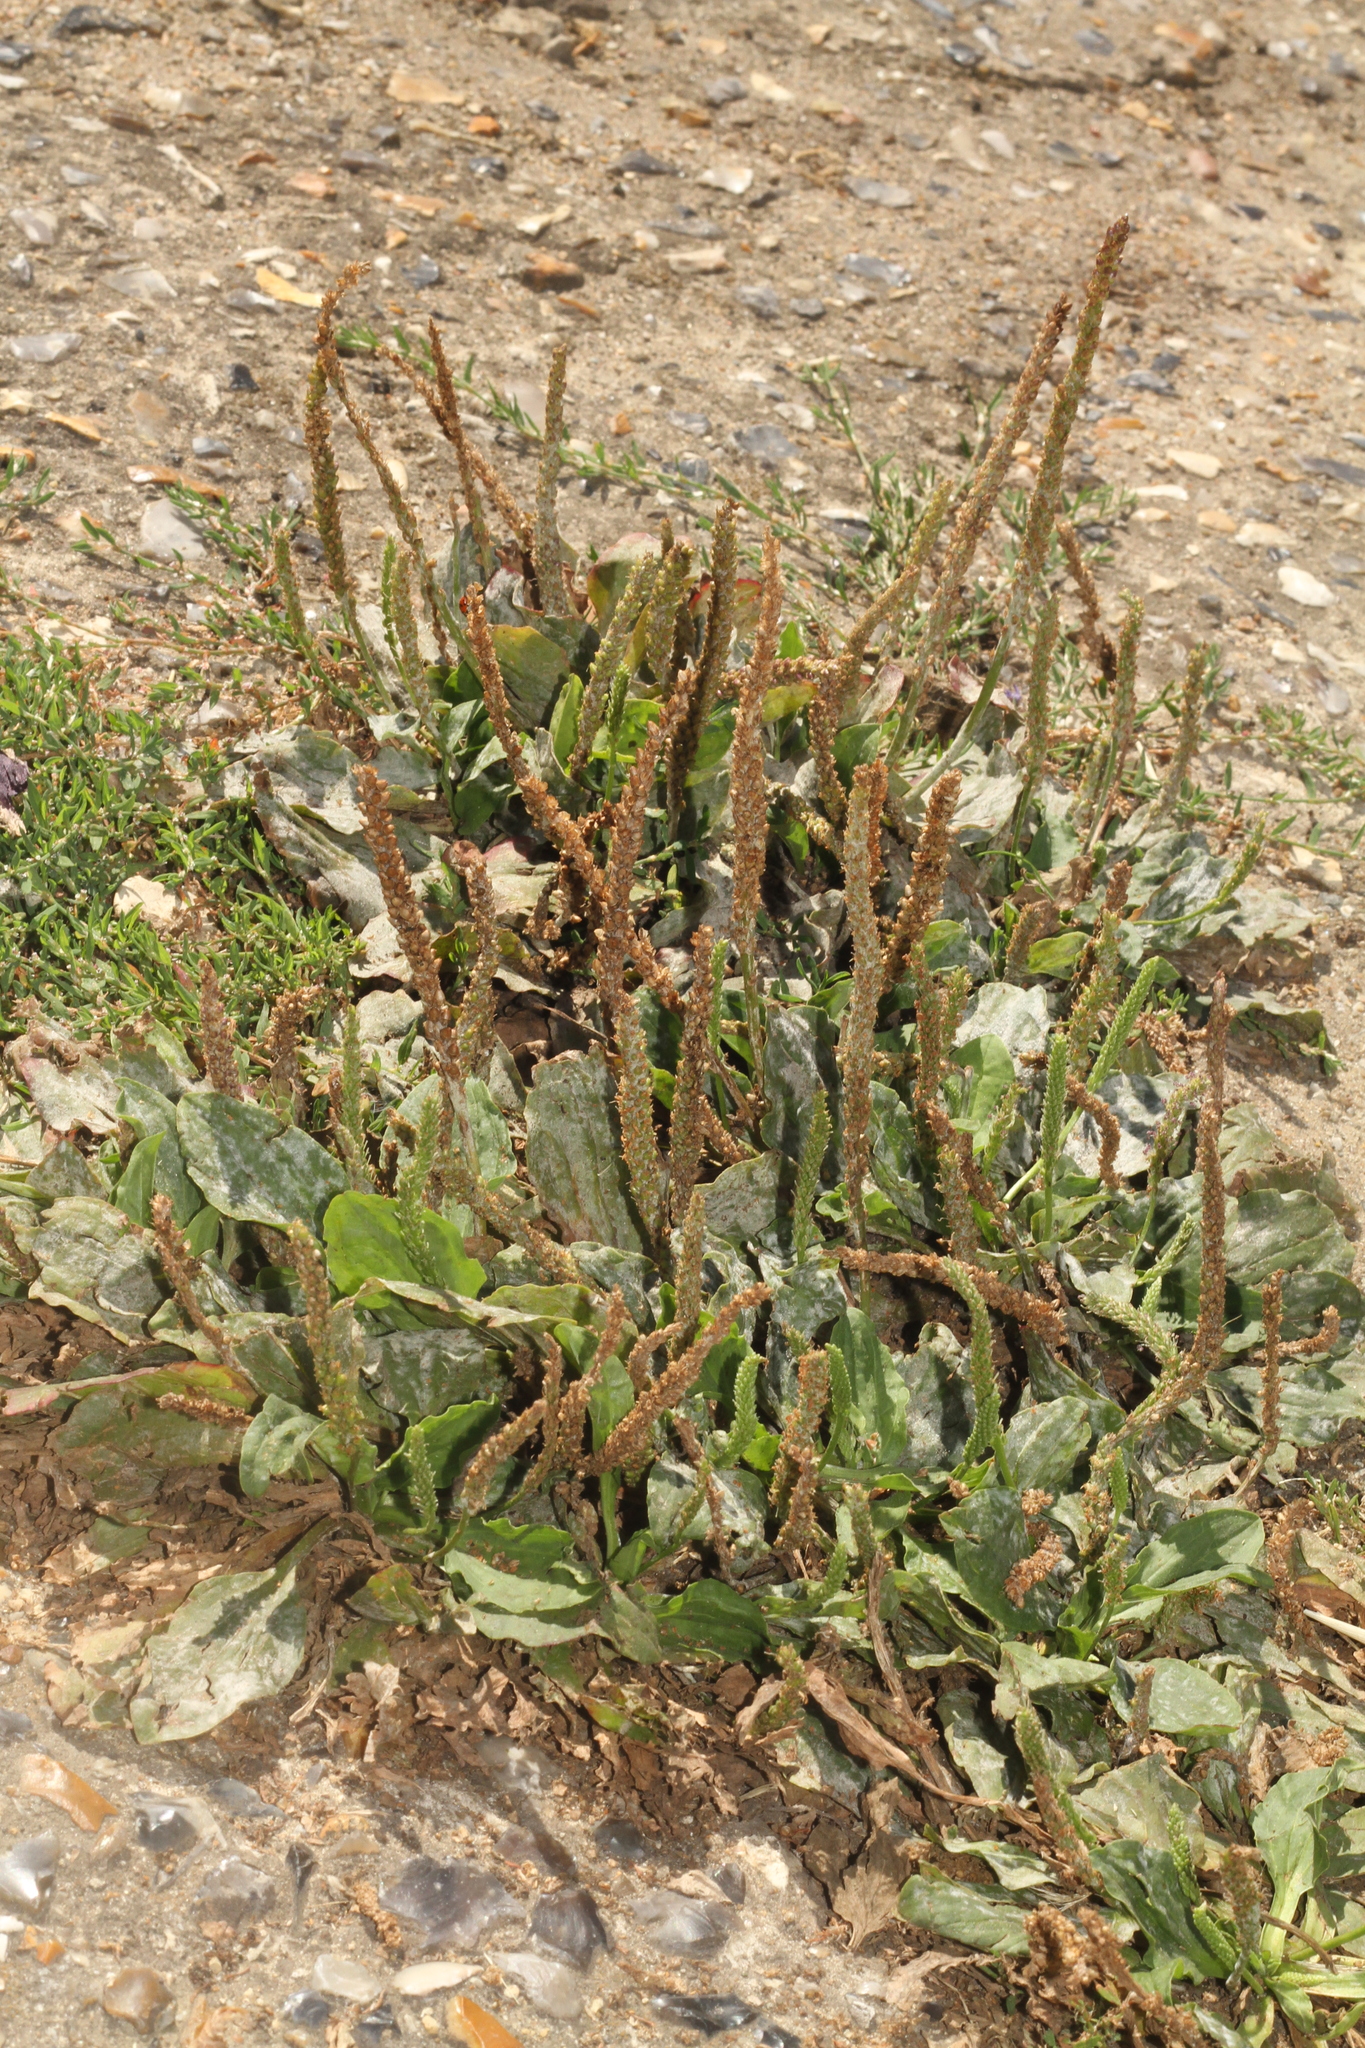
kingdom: Plantae
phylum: Tracheophyta
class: Magnoliopsida
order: Lamiales
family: Plantaginaceae
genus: Plantago
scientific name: Plantago major
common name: Common plantain
